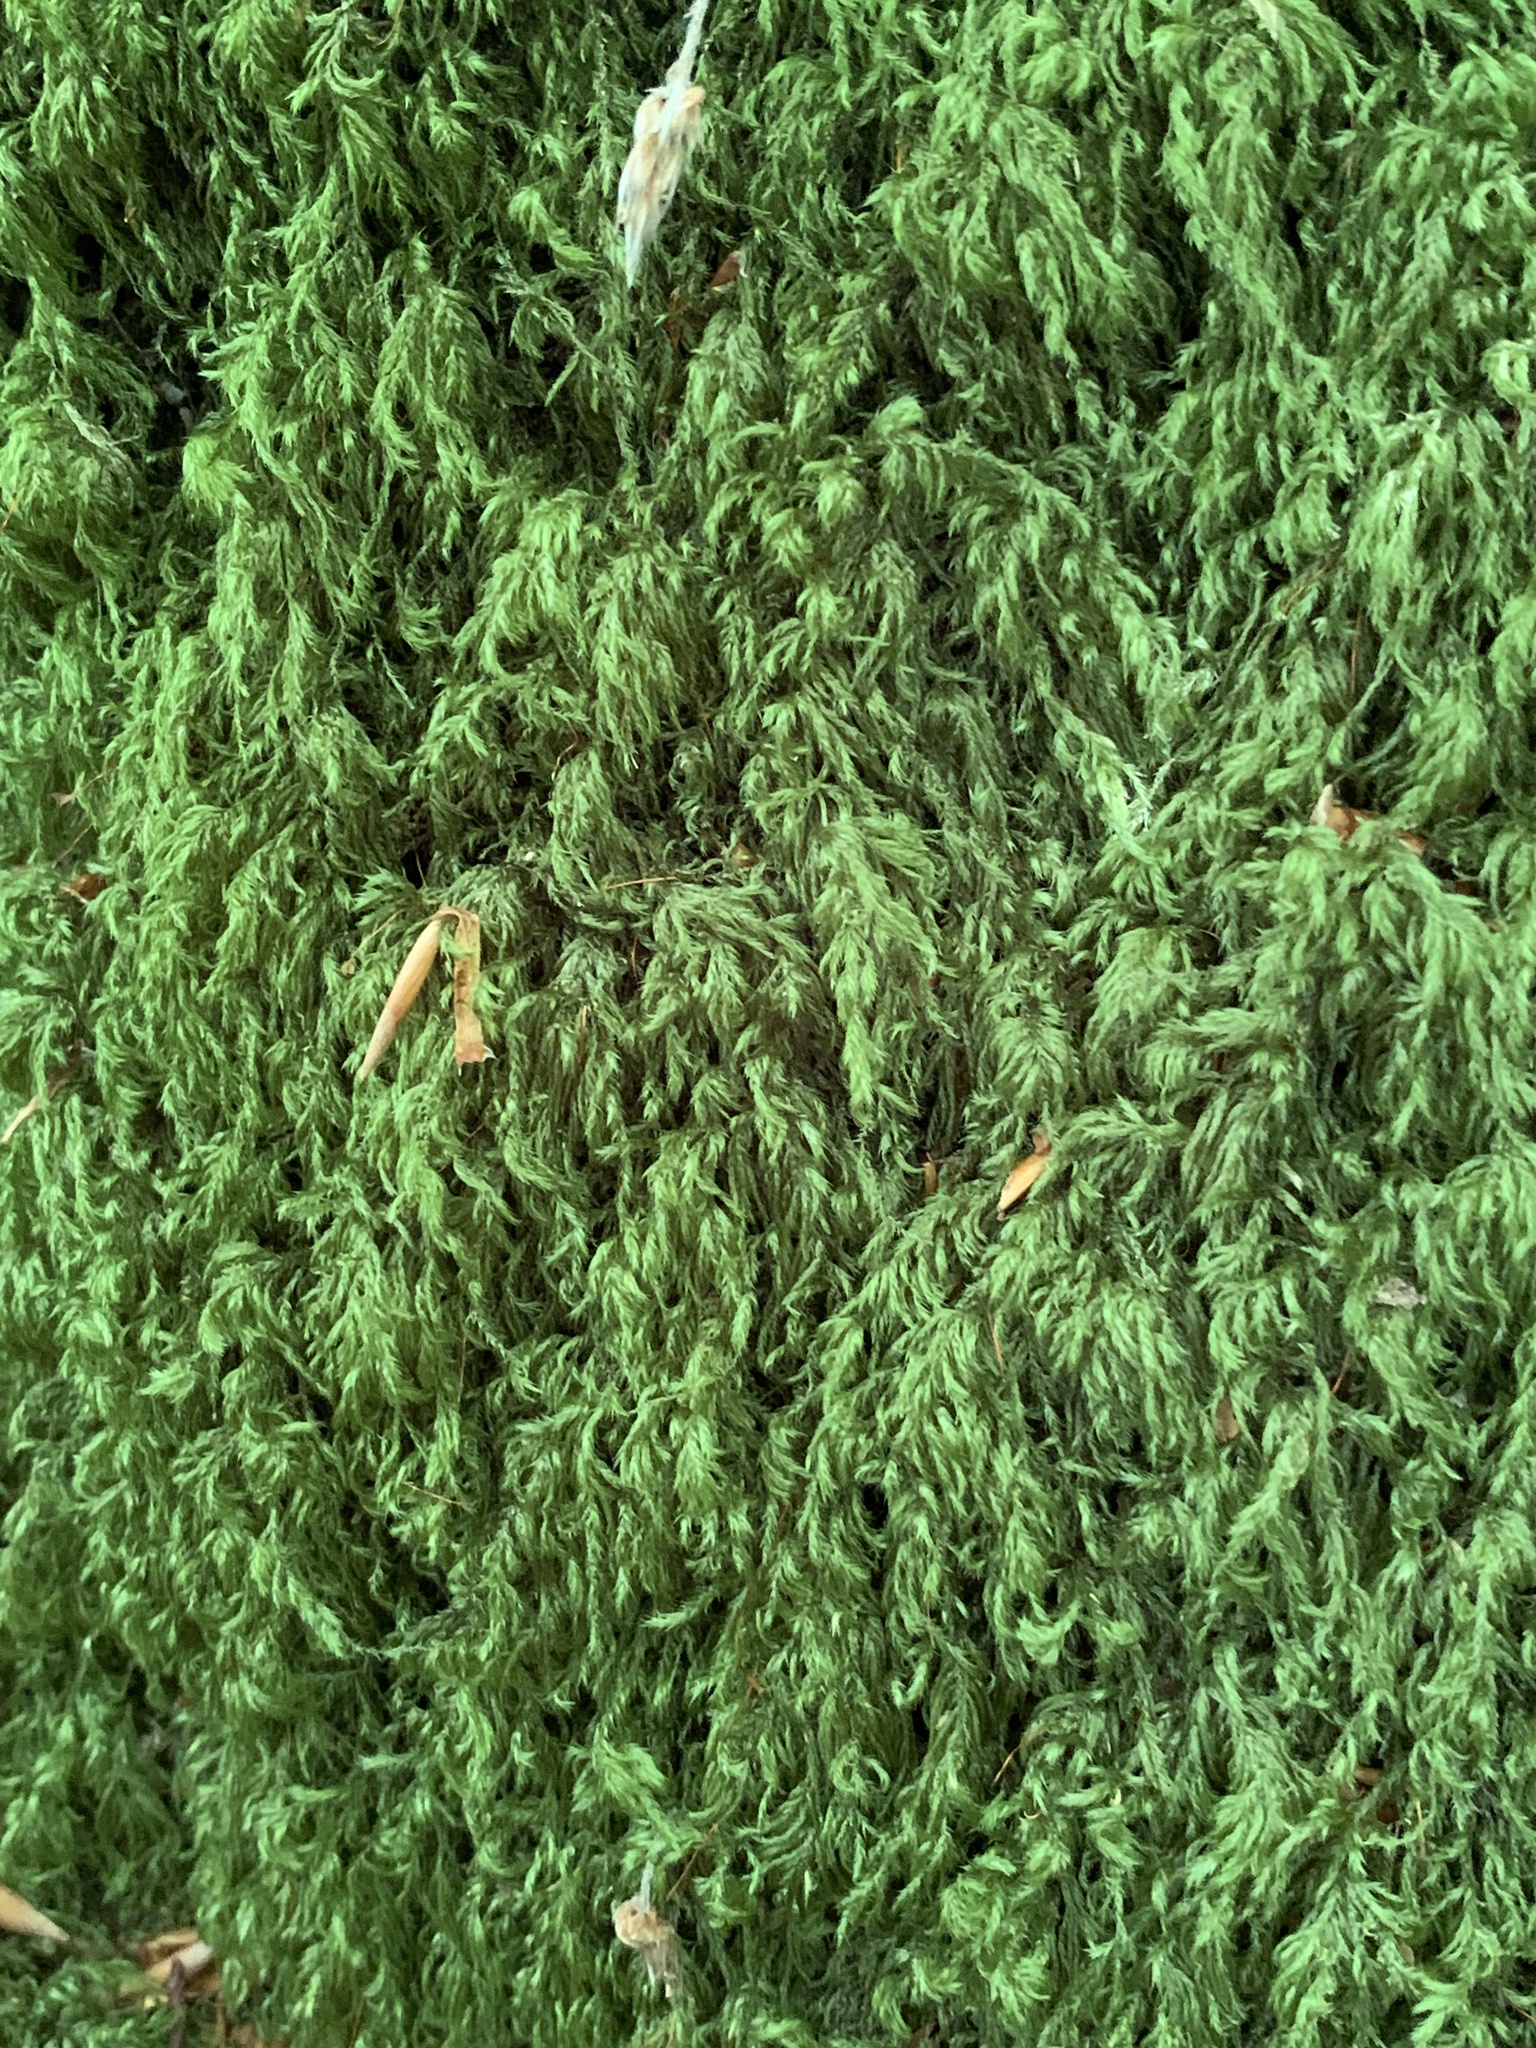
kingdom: Plantae
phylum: Bryophyta
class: Bryopsida
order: Hypnales
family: Lembophyllaceae
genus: Pseudisothecium
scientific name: Pseudisothecium myosuroides
